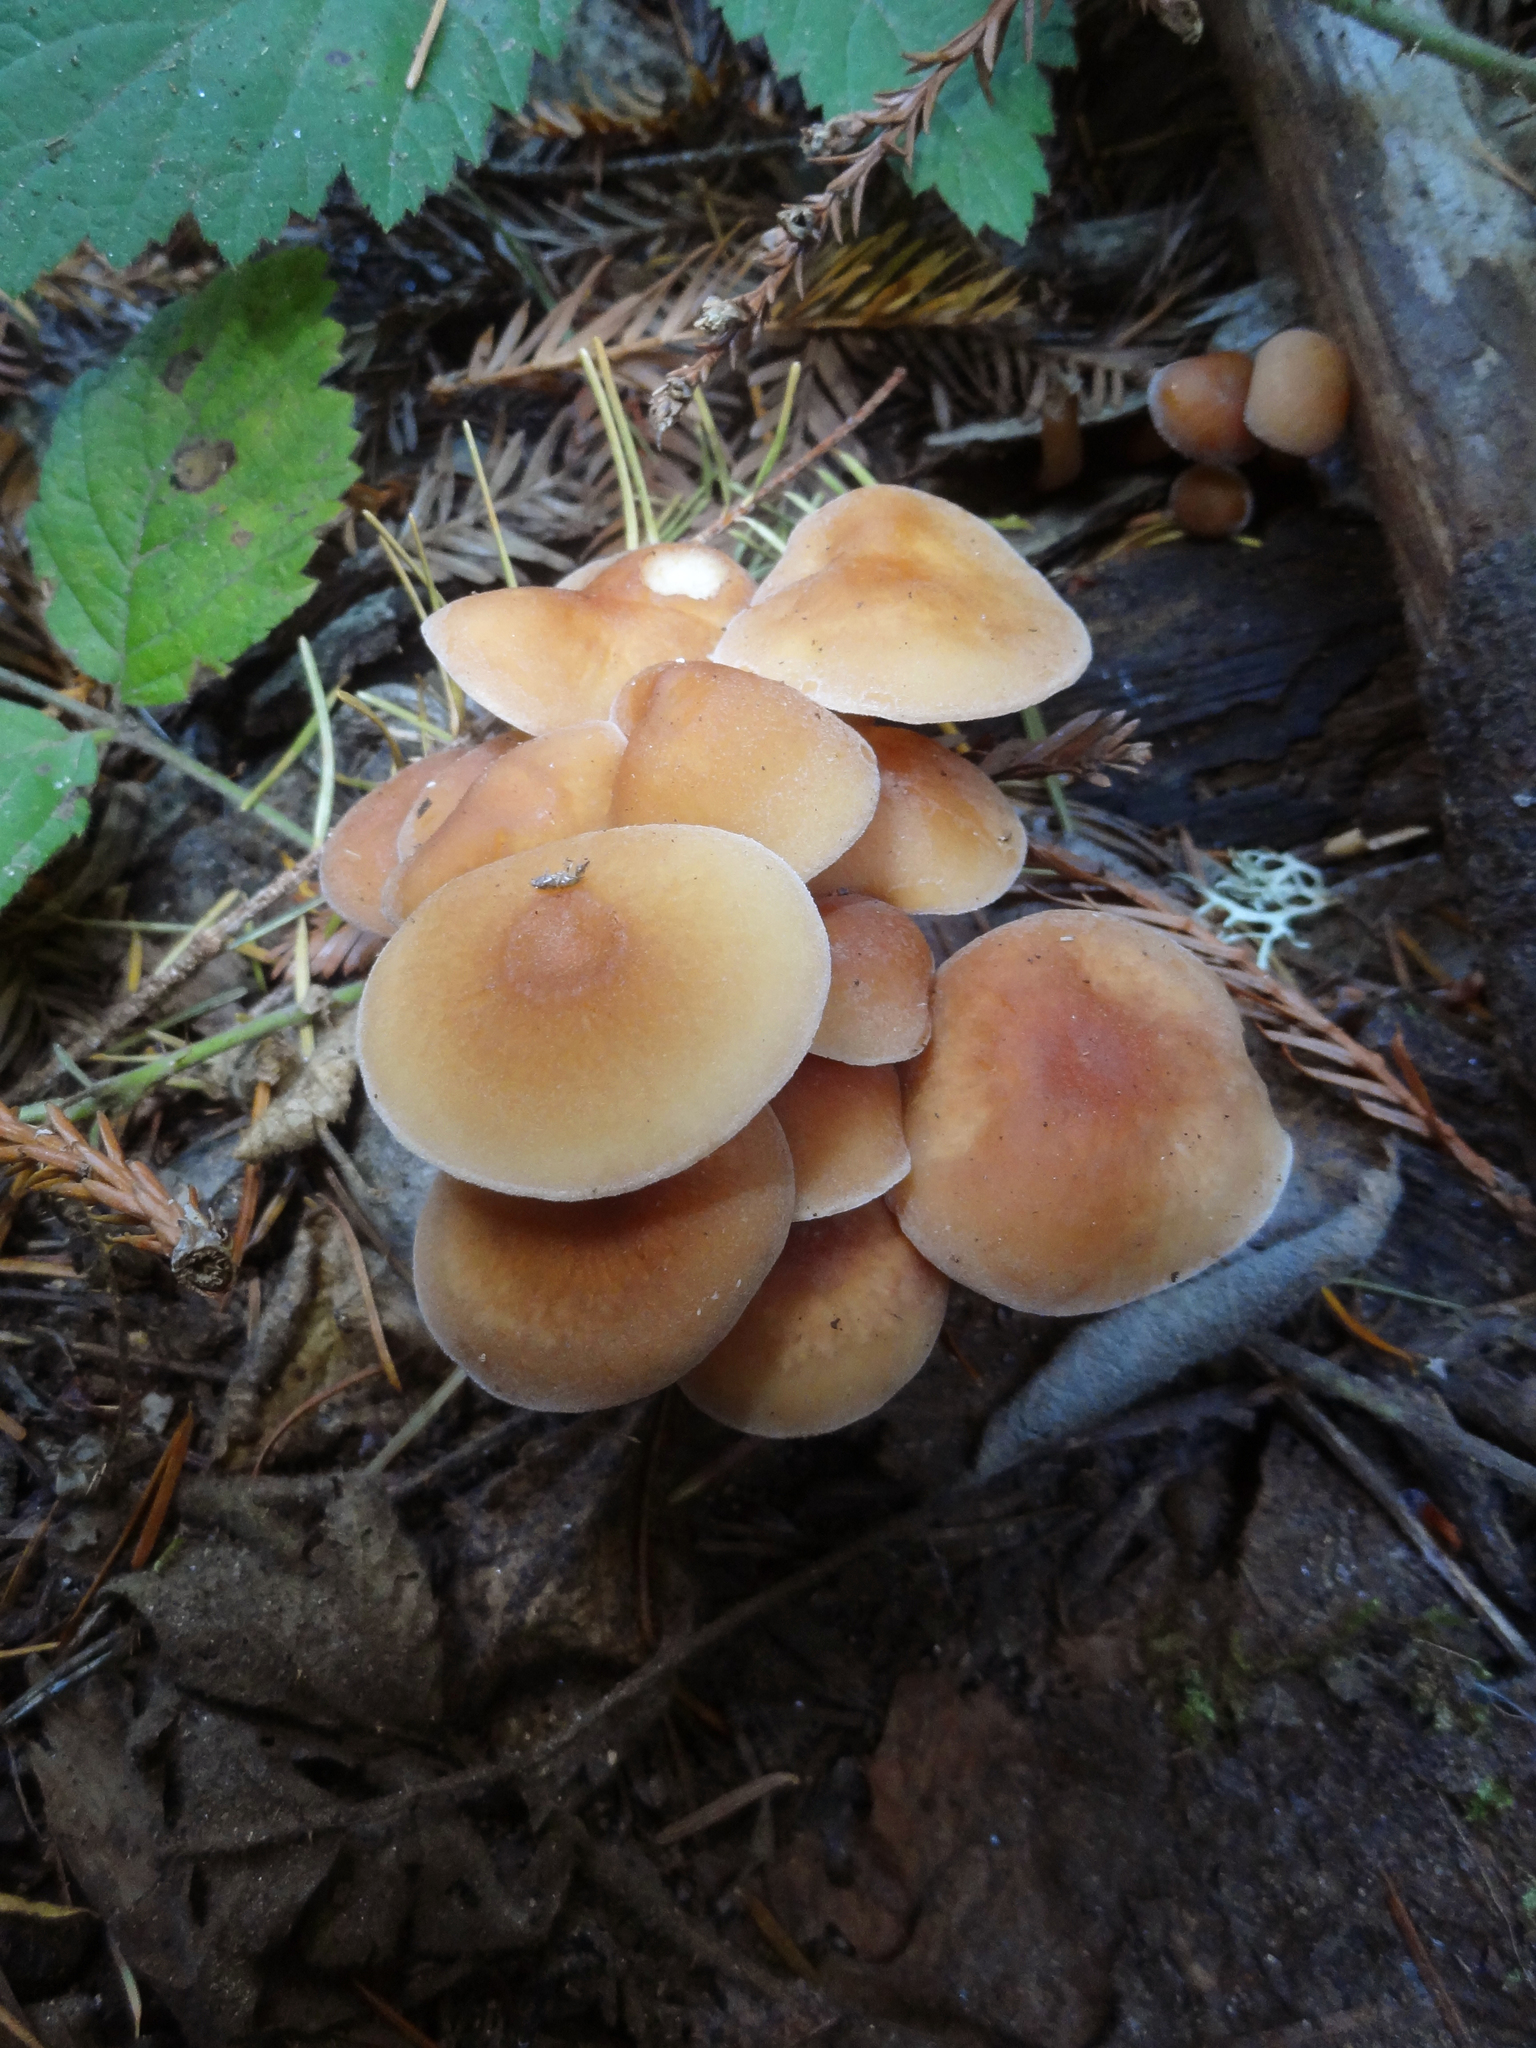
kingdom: Fungi
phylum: Basidiomycota
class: Agaricomycetes
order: Agaricales
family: Omphalotaceae
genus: Gymnopus
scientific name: Gymnopus erythropus
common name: Redleg toughshank
